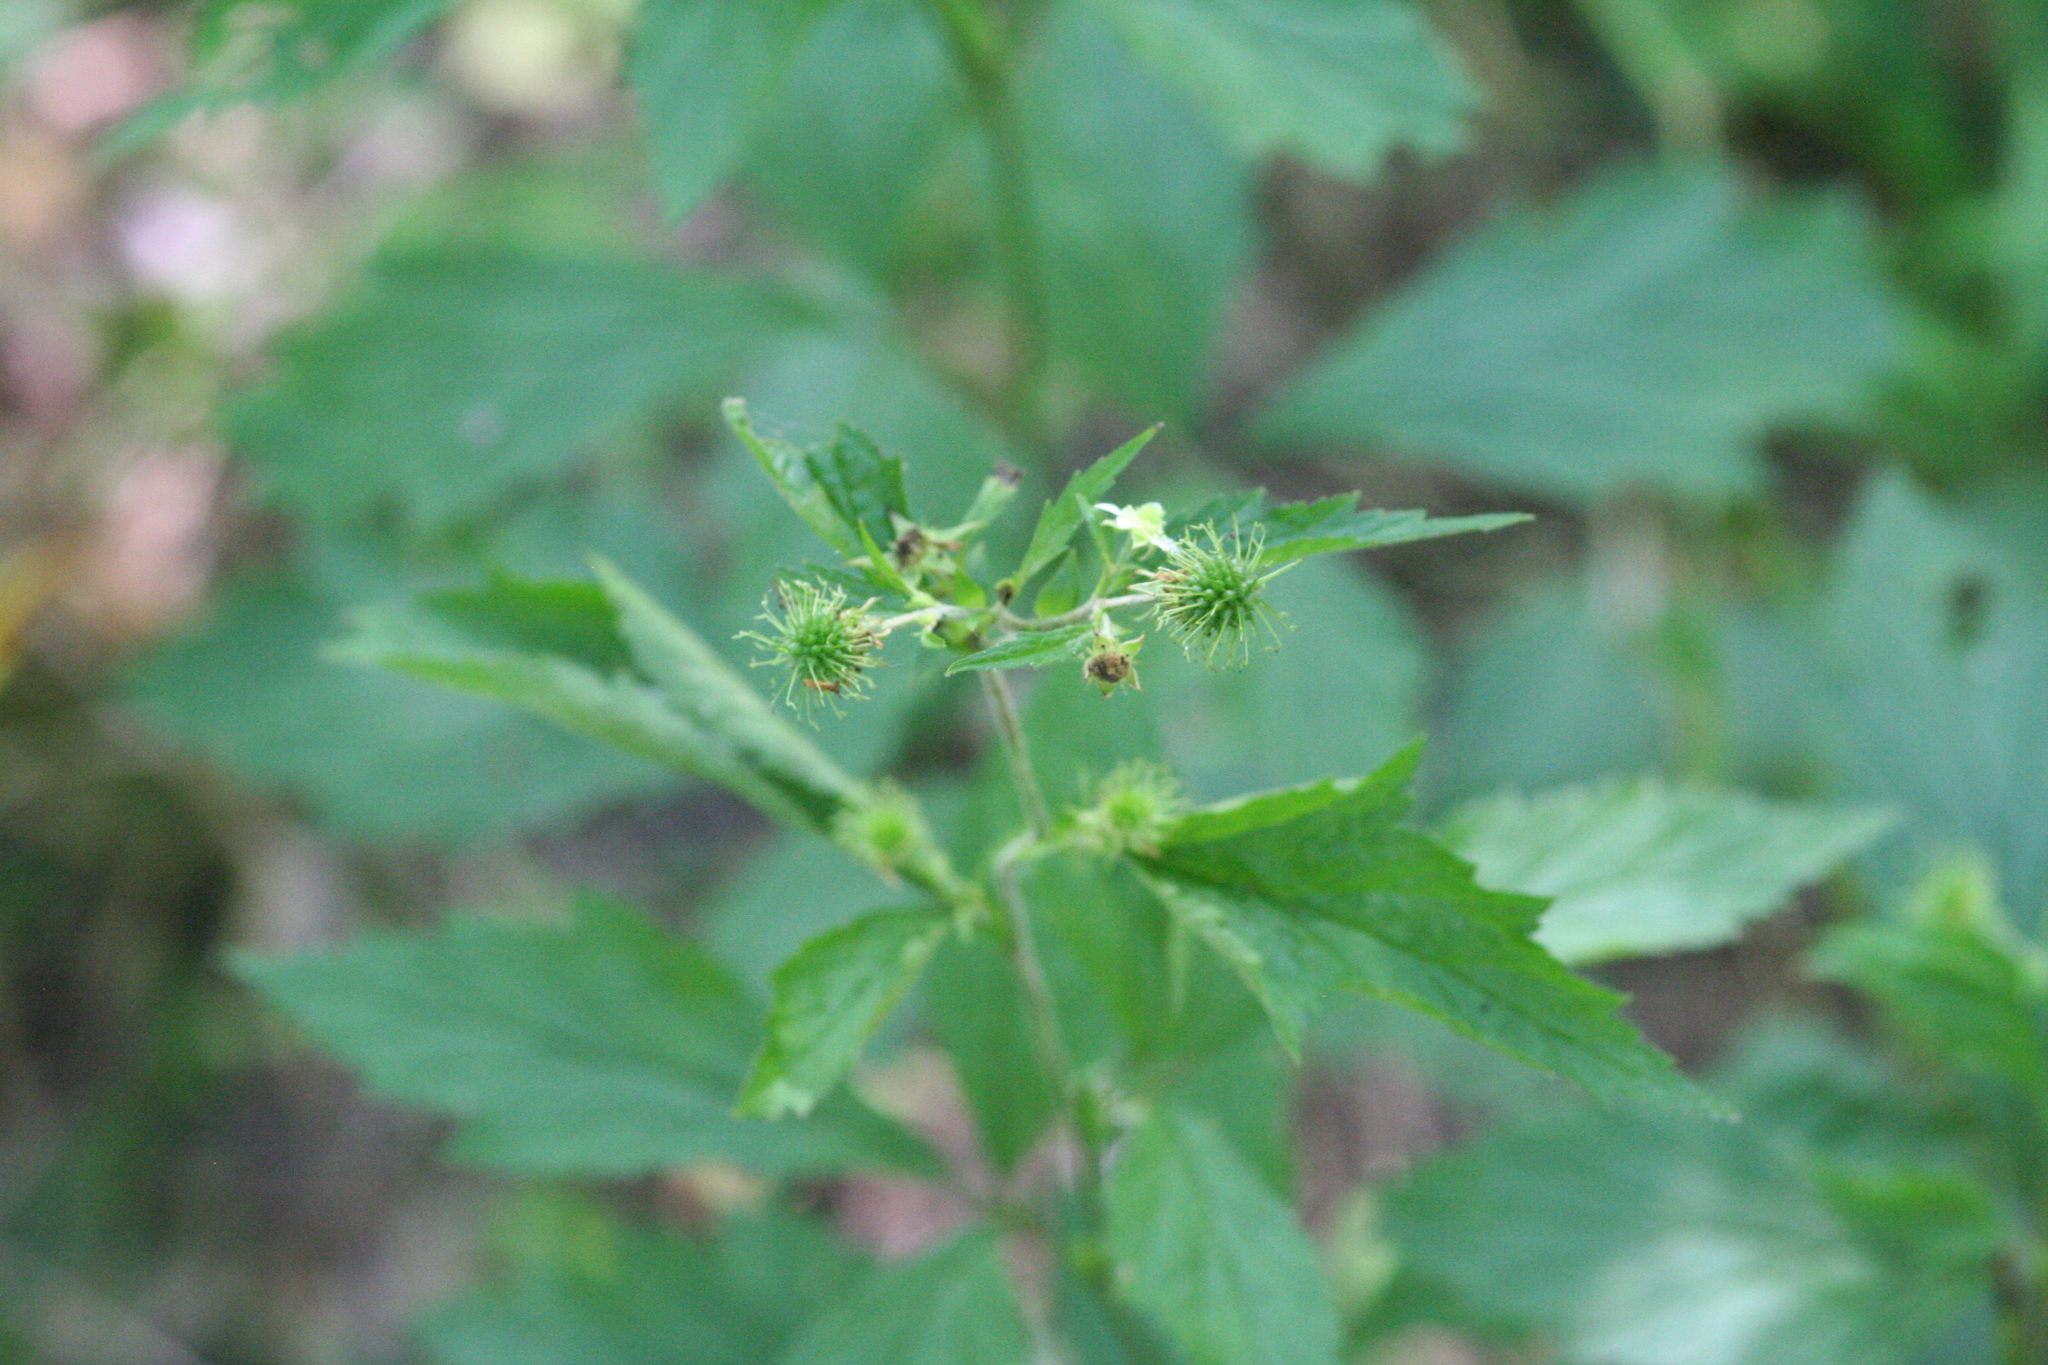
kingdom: Plantae
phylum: Tracheophyta
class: Magnoliopsida
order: Rosales
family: Rosaceae
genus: Geum
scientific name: Geum canadense
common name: White avens
